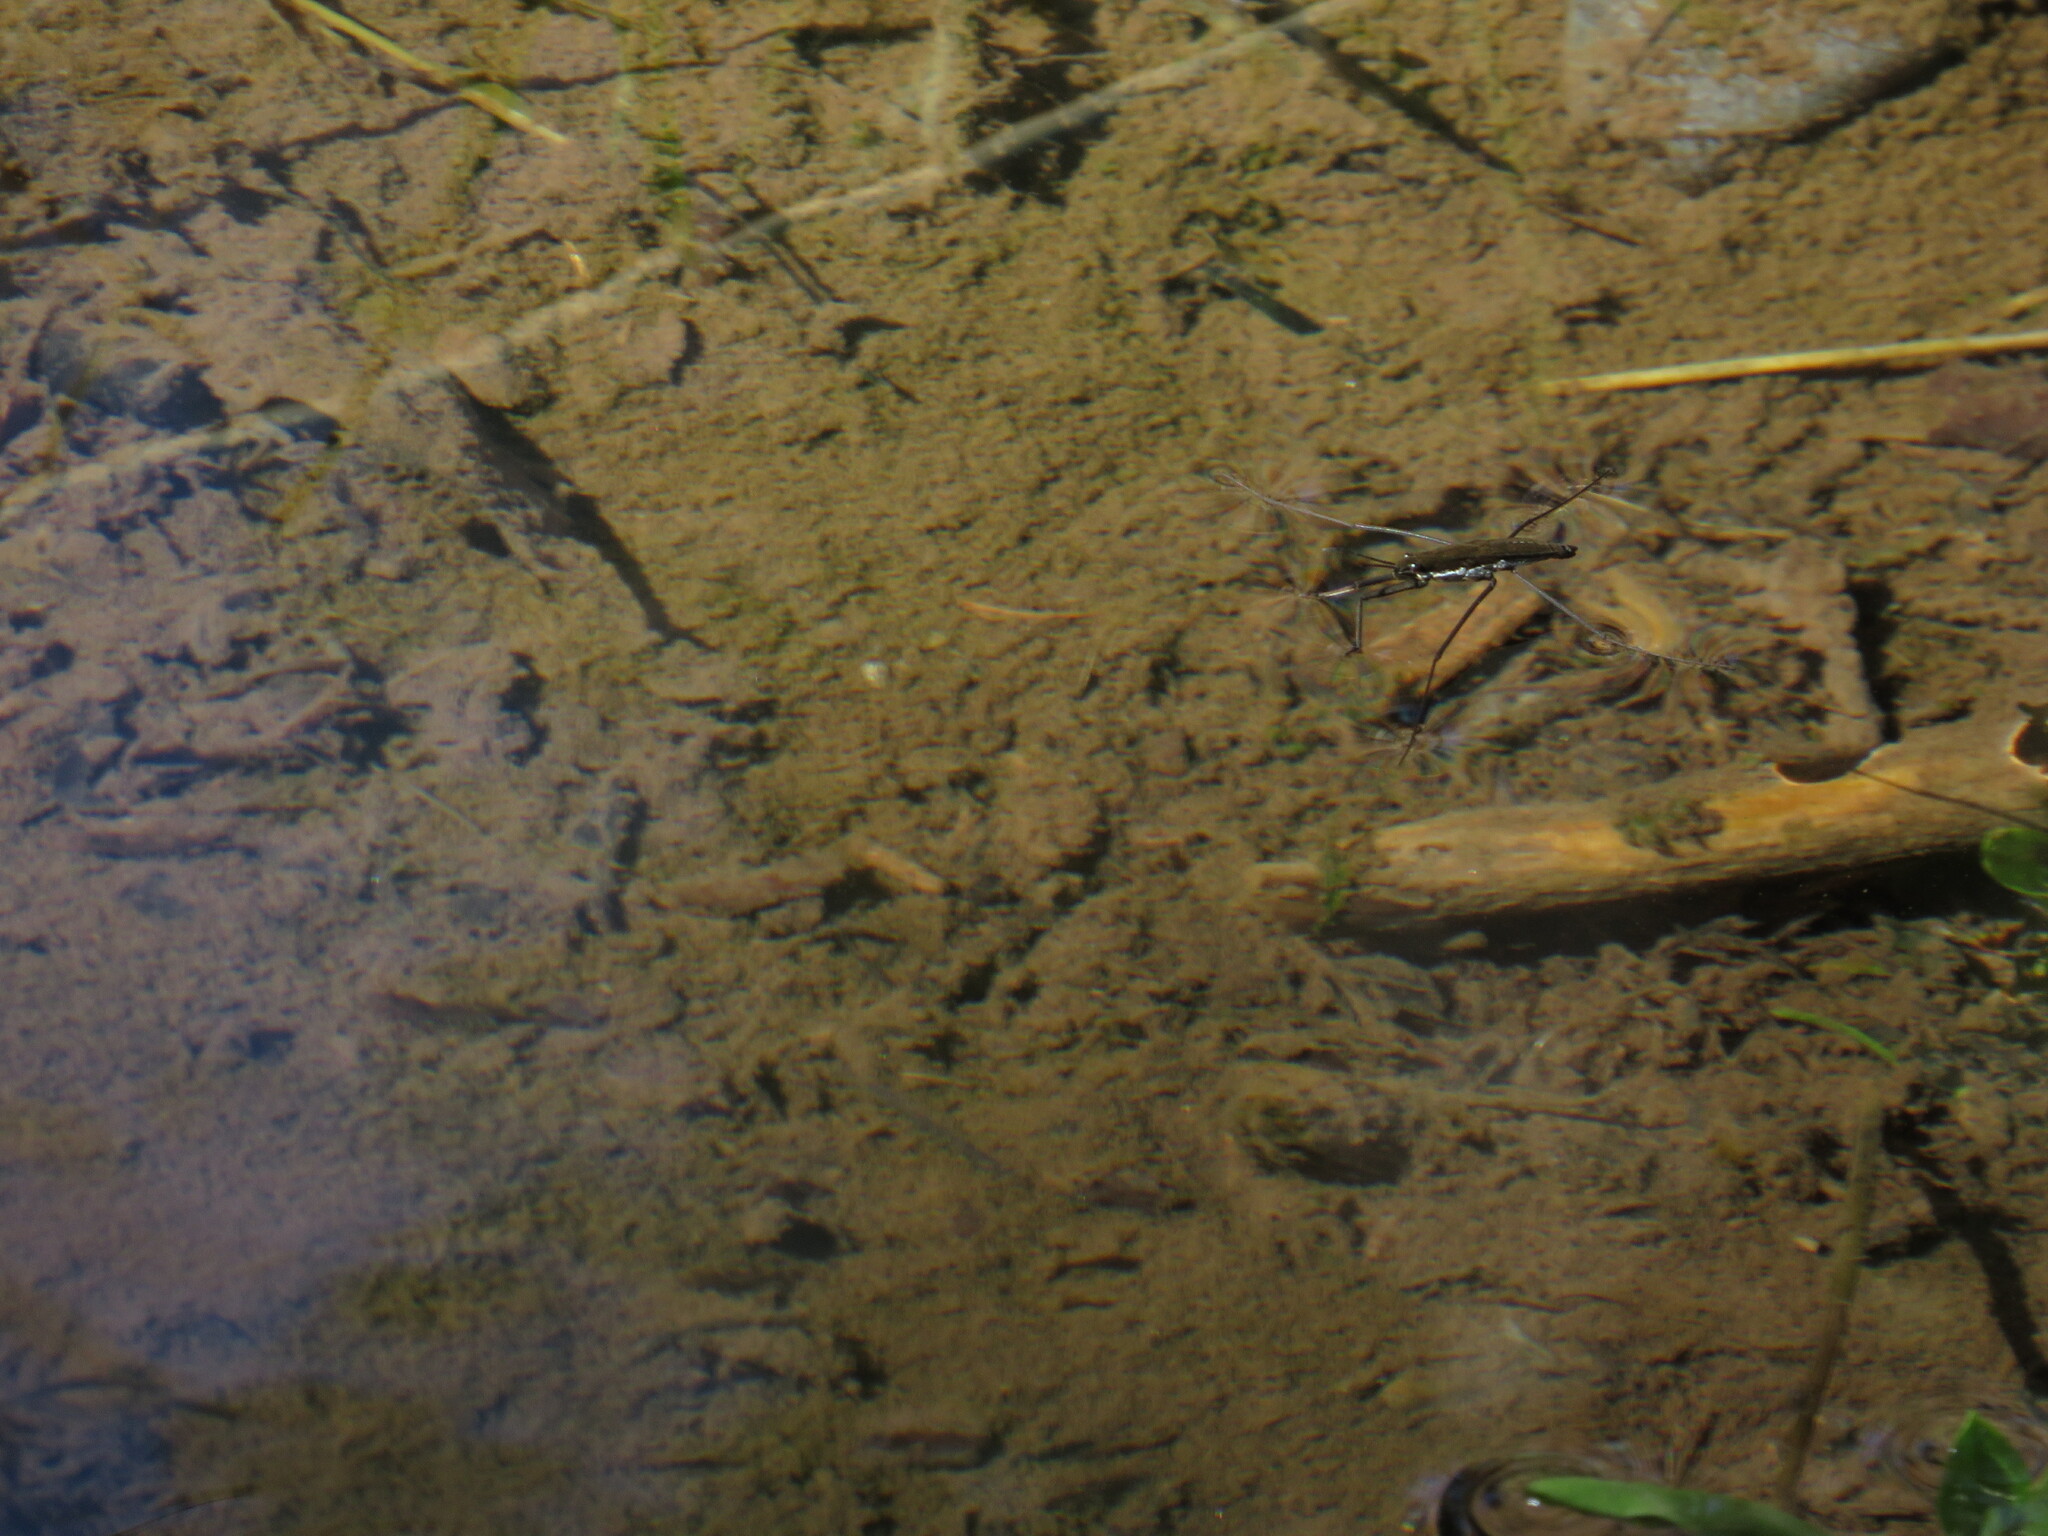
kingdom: Animalia
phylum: Arthropoda
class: Insecta
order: Hemiptera
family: Gerridae
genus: Aquarius
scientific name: Aquarius remigis
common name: Common water strider
